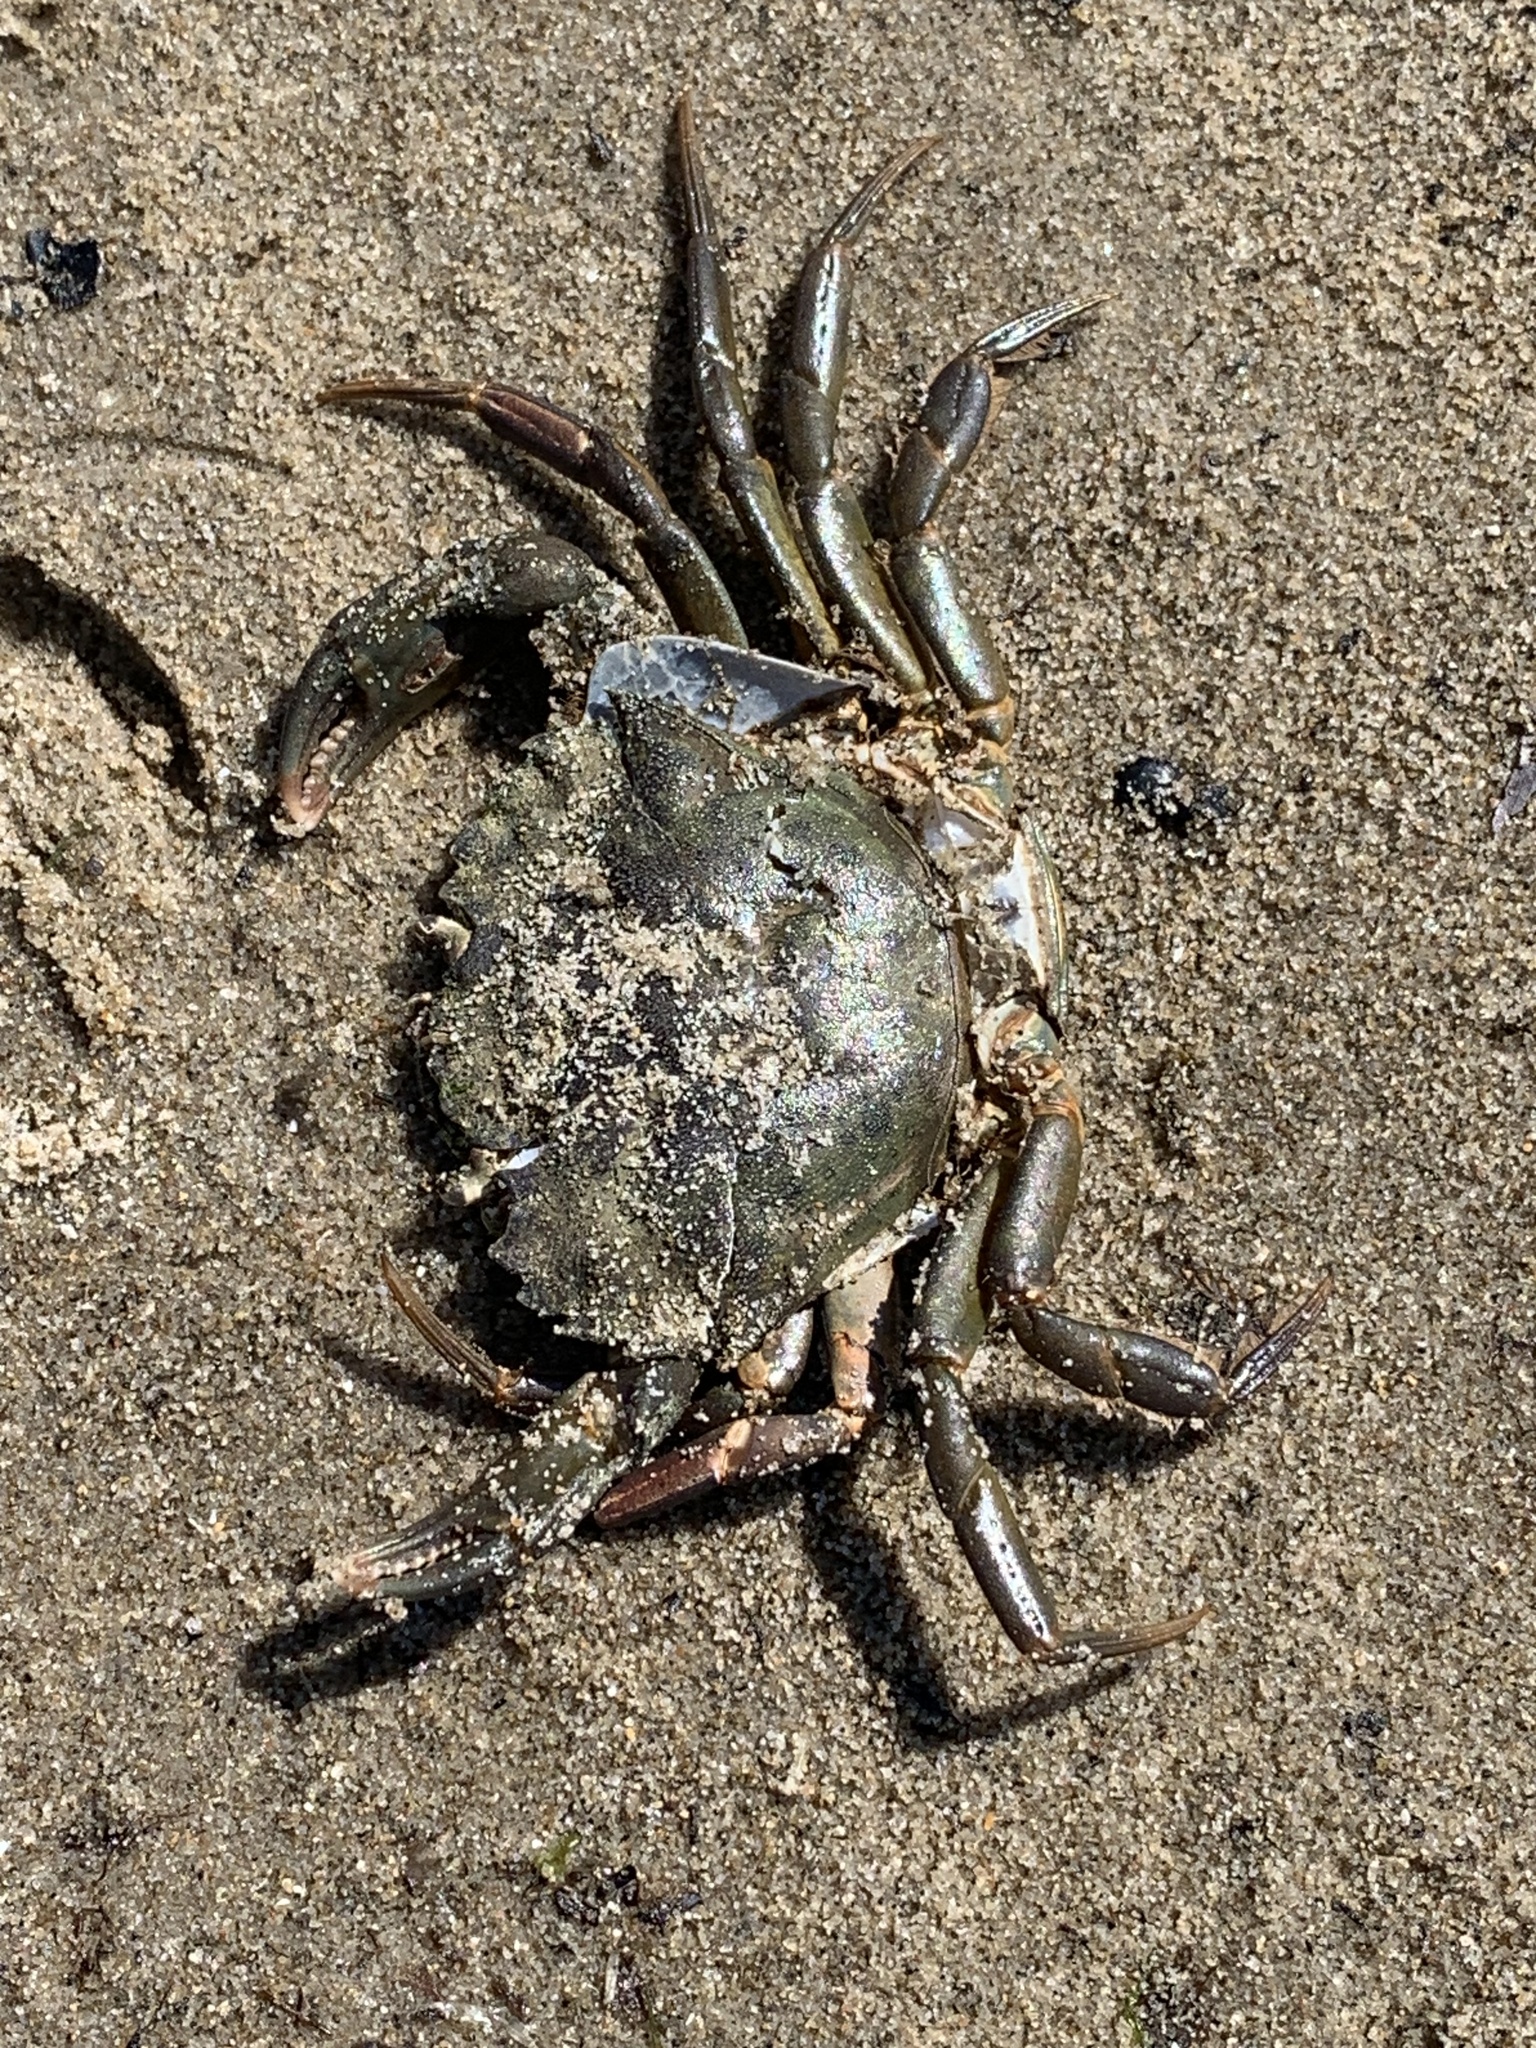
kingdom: Animalia
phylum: Arthropoda
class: Malacostraca
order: Decapoda
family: Carcinidae
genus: Carcinus
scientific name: Carcinus maenas
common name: European green crab
